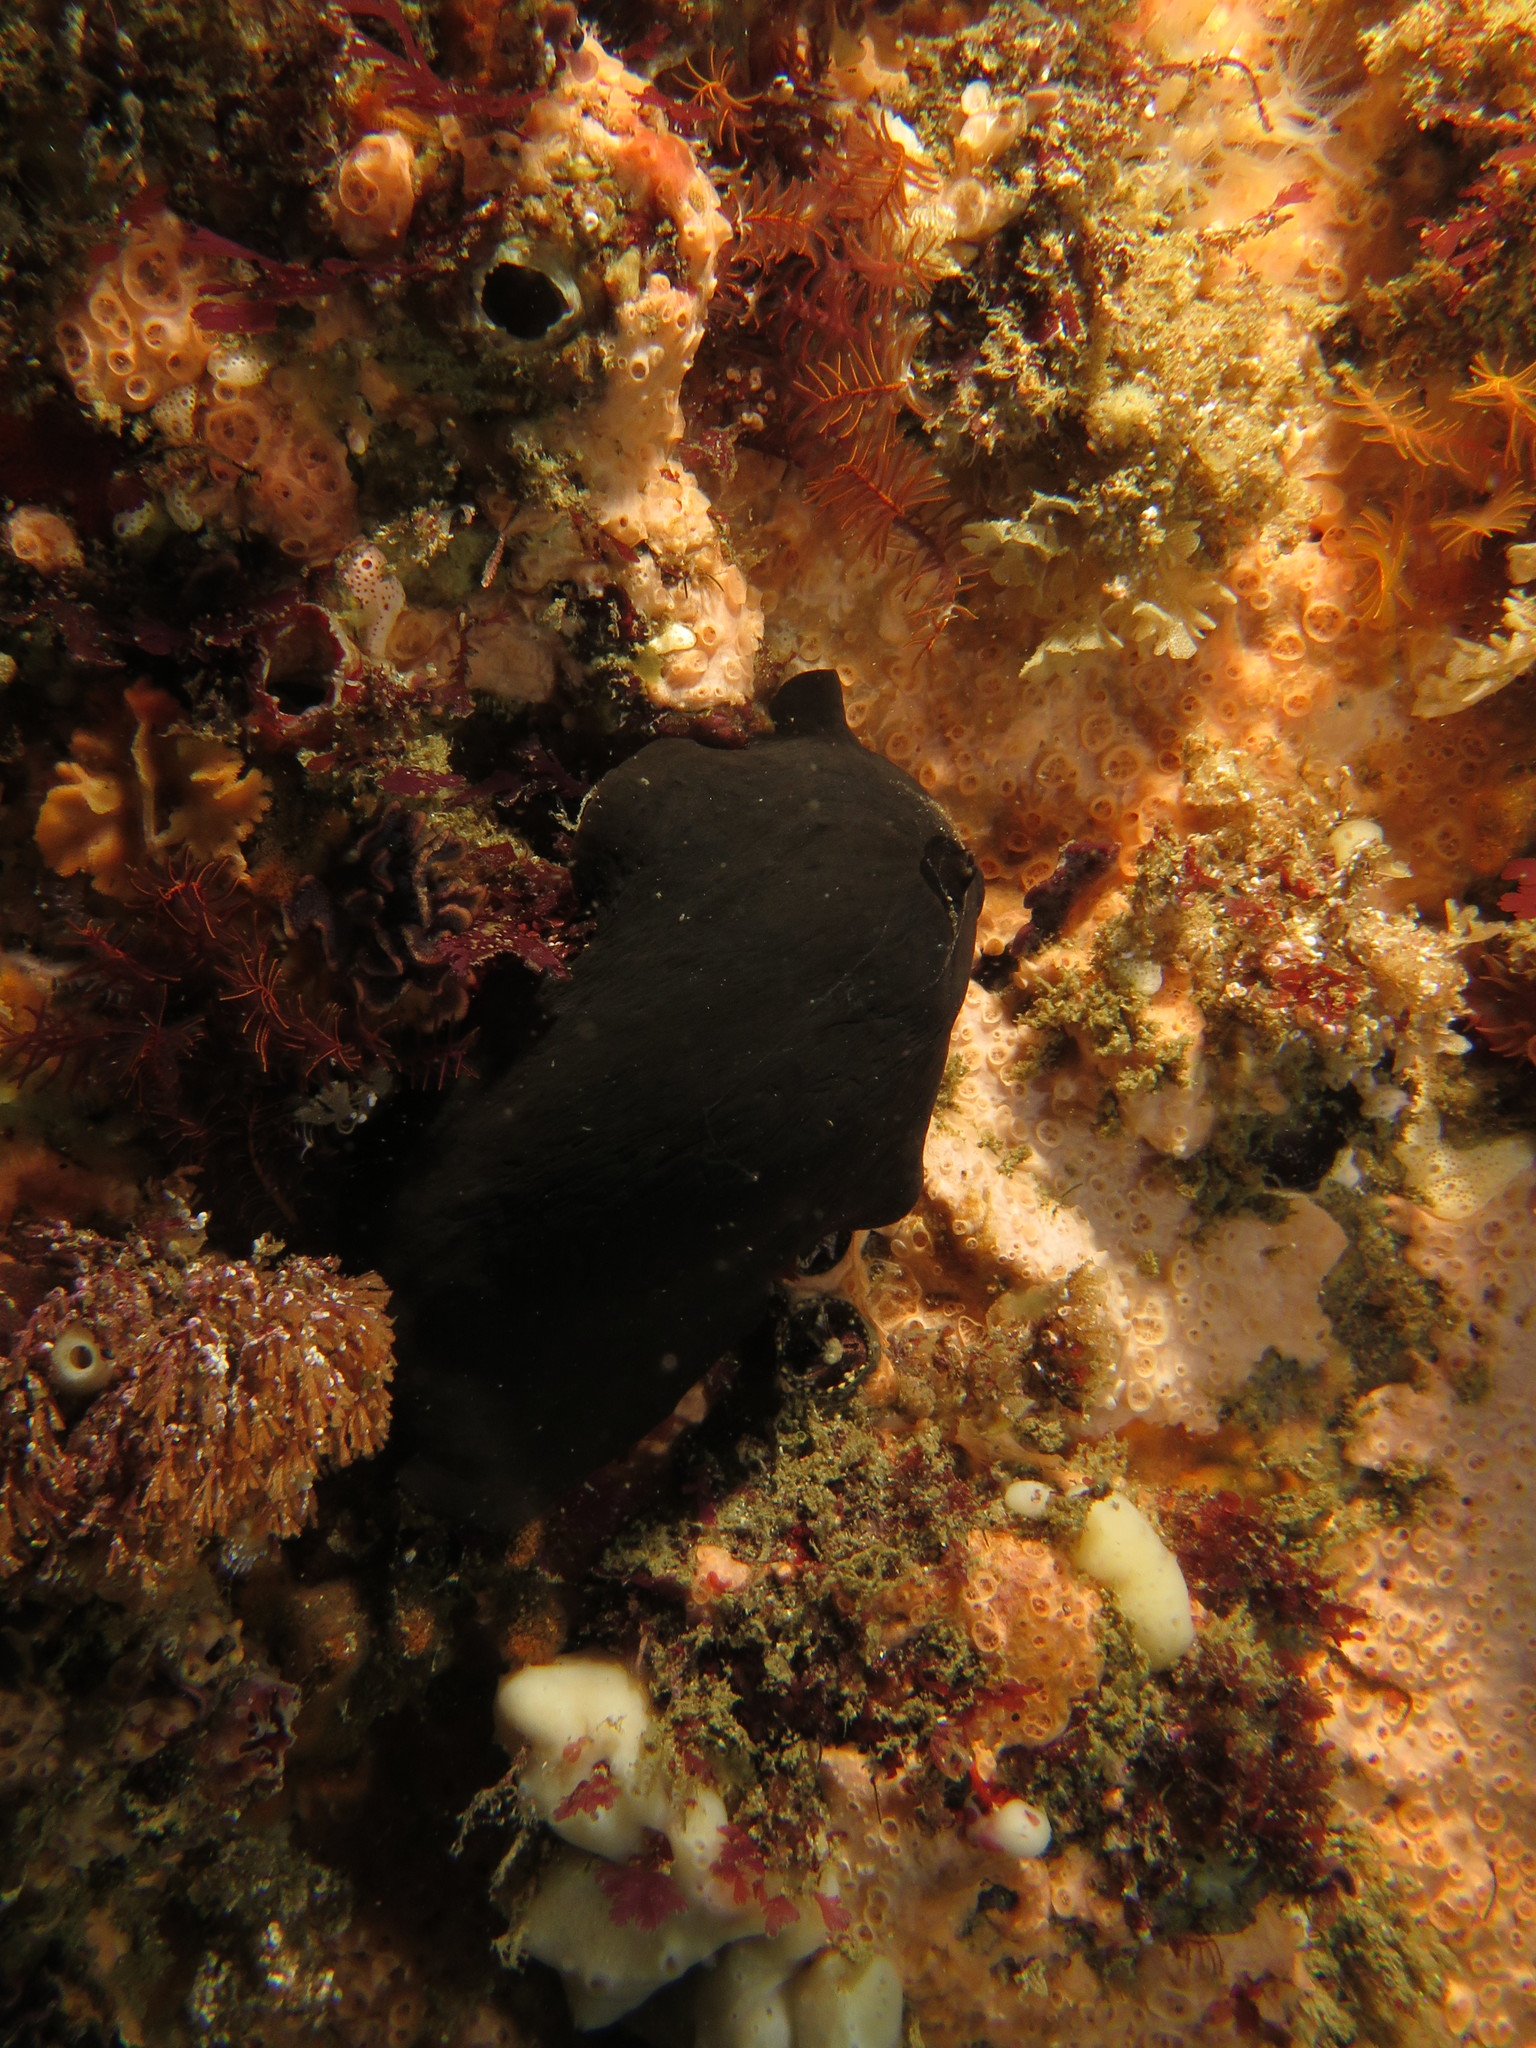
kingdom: Animalia
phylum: Mollusca
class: Gastropoda
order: Lepetellida
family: Fissurellidae
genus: Pupillaea
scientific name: Pupillaea aperta
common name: Mantled keyhole limpet
